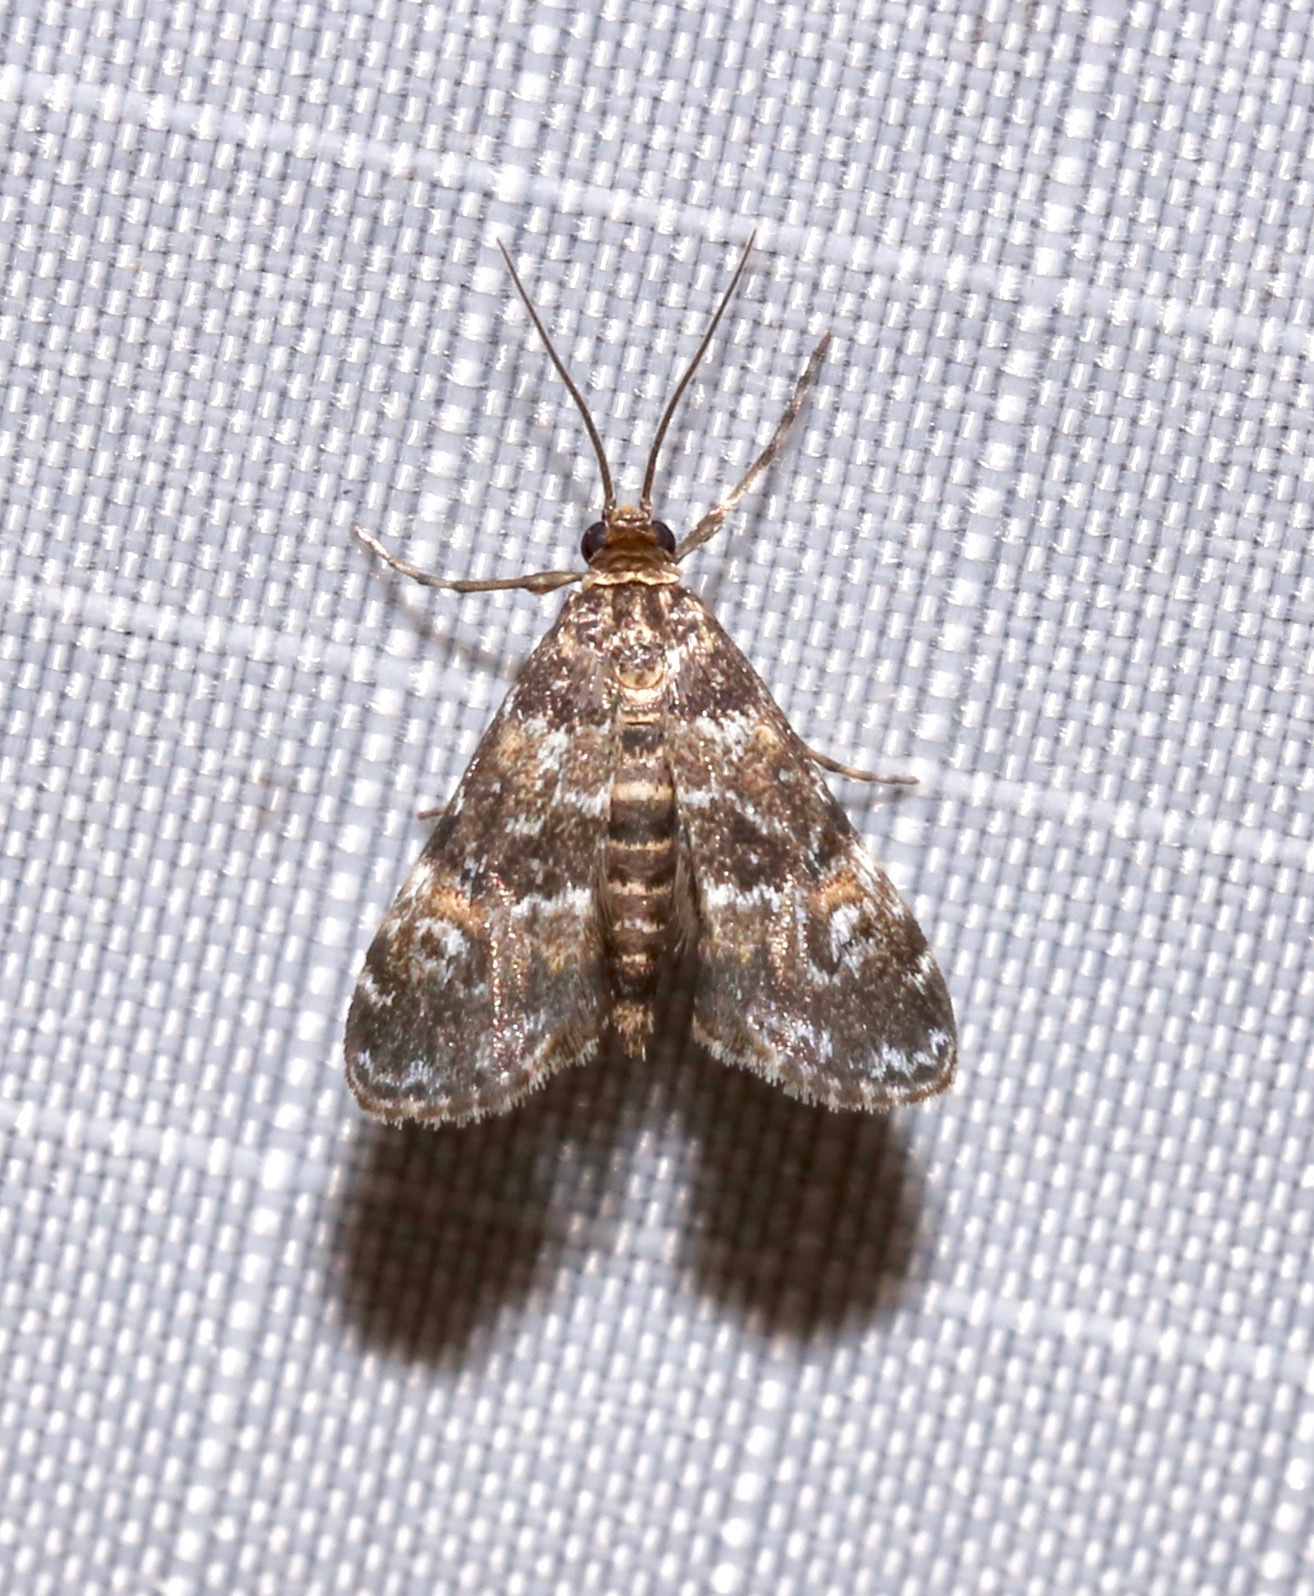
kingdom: Animalia
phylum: Arthropoda
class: Insecta
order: Lepidoptera
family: Crambidae
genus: Elophila
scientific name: Elophila obliteralis
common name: Waterlily leafcutter moth
